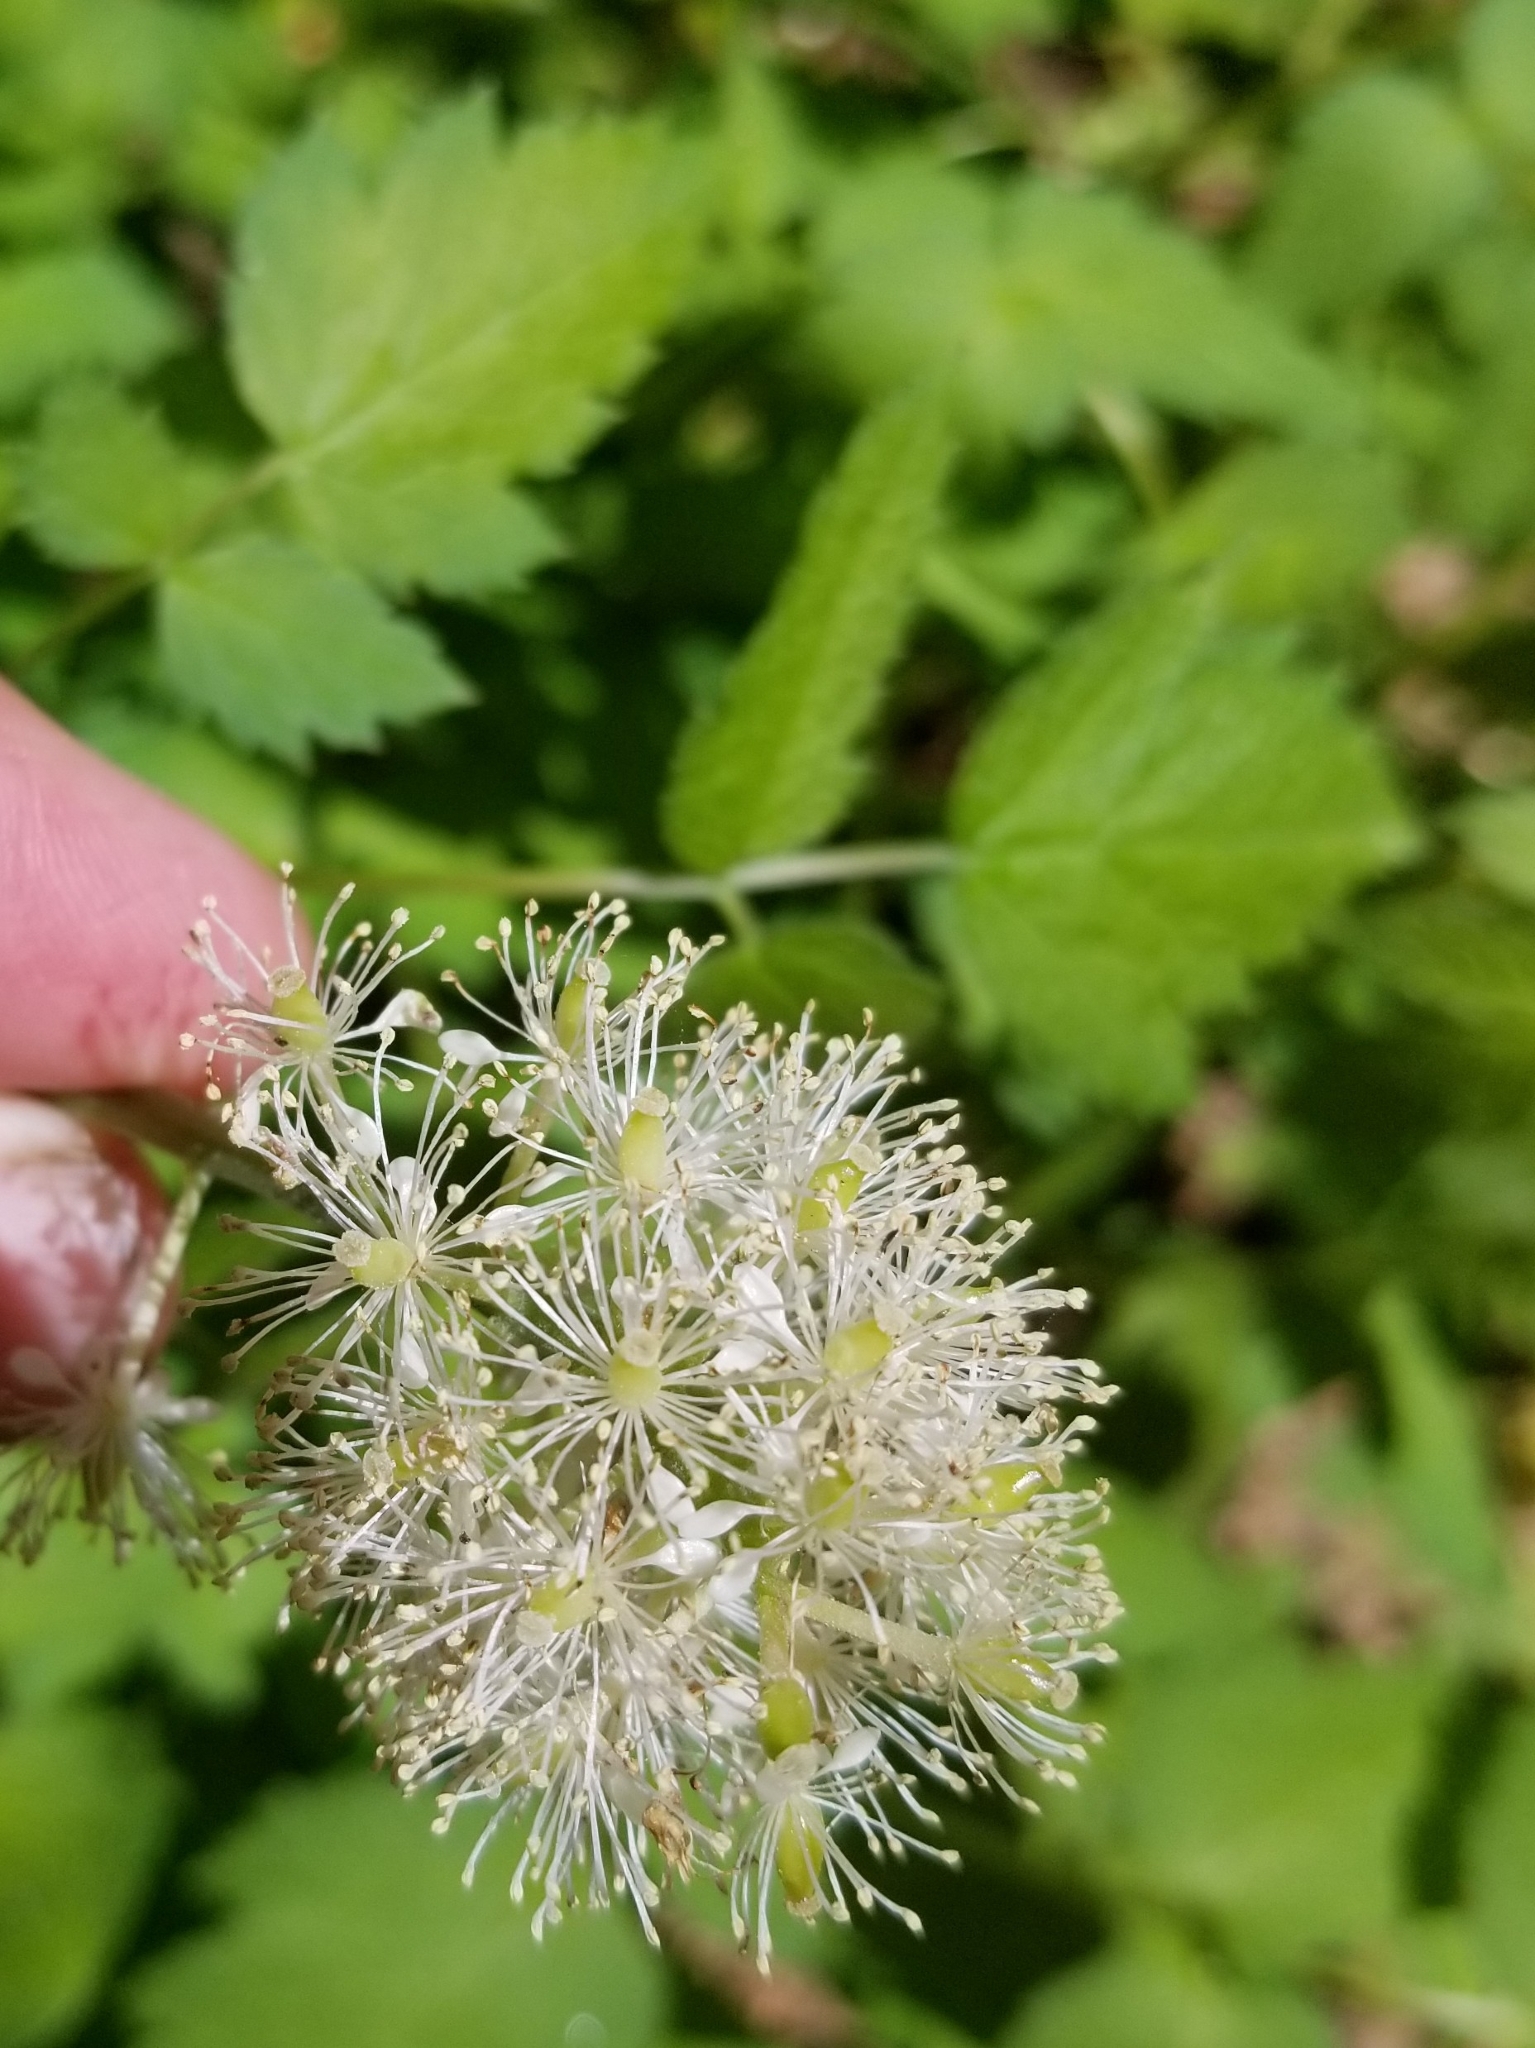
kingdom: Plantae
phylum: Tracheophyta
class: Magnoliopsida
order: Ranunculales
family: Ranunculaceae
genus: Actaea
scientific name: Actaea rubra
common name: Red baneberry
